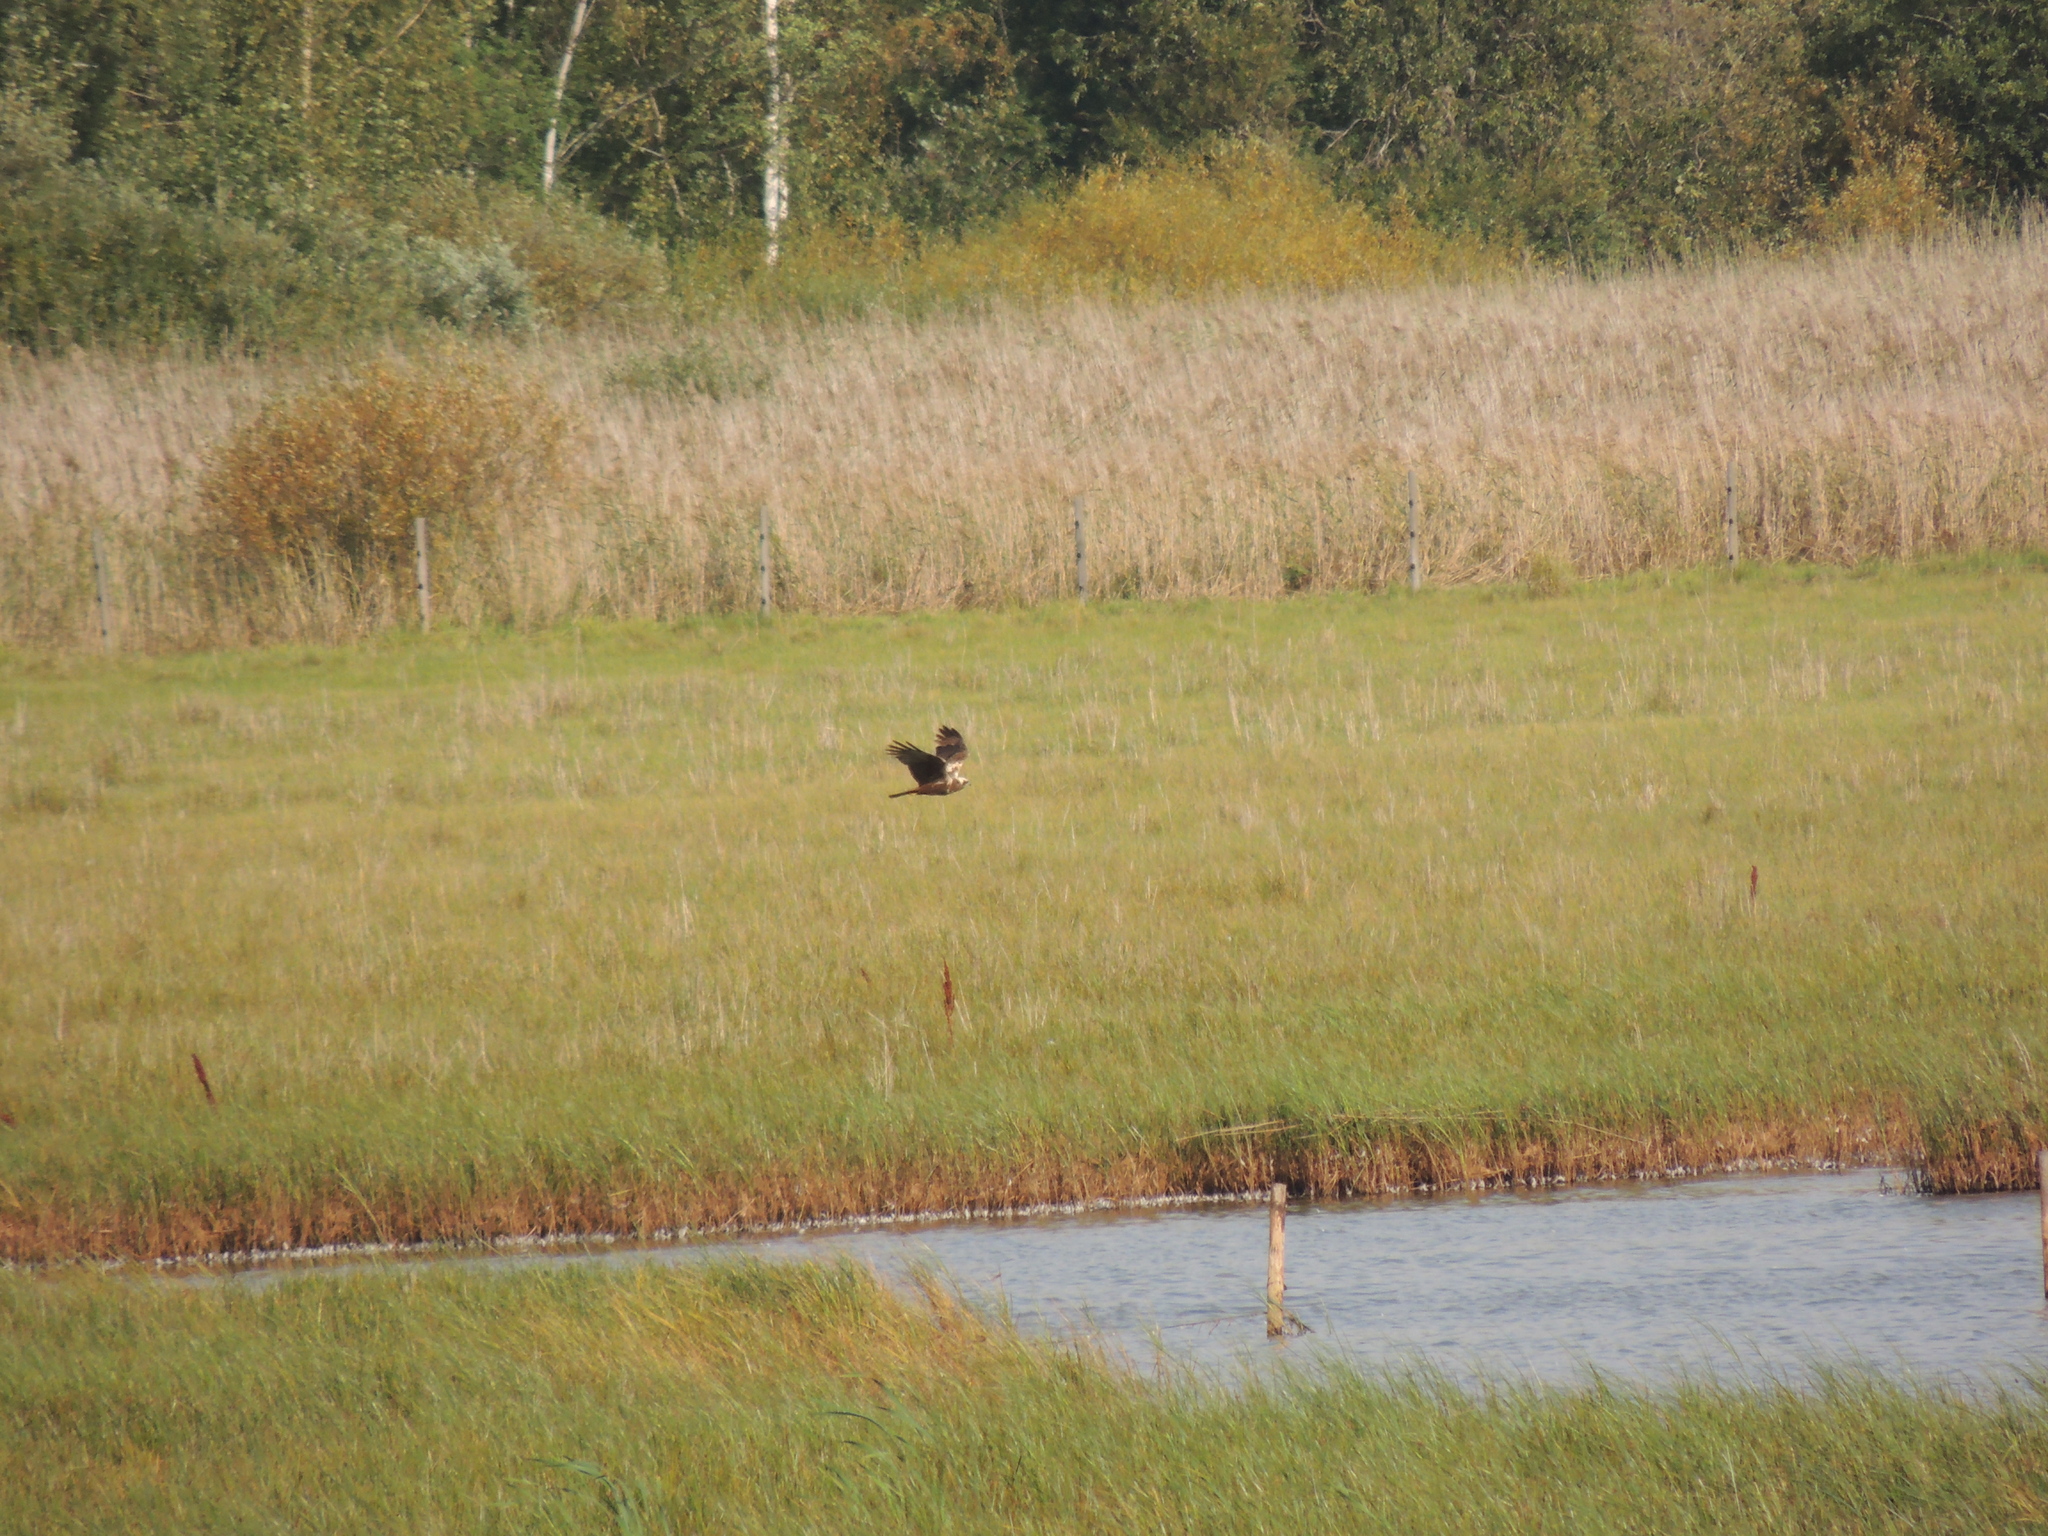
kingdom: Animalia
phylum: Chordata
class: Aves
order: Accipitriformes
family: Accipitridae
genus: Circus
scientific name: Circus aeruginosus
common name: Western marsh harrier
